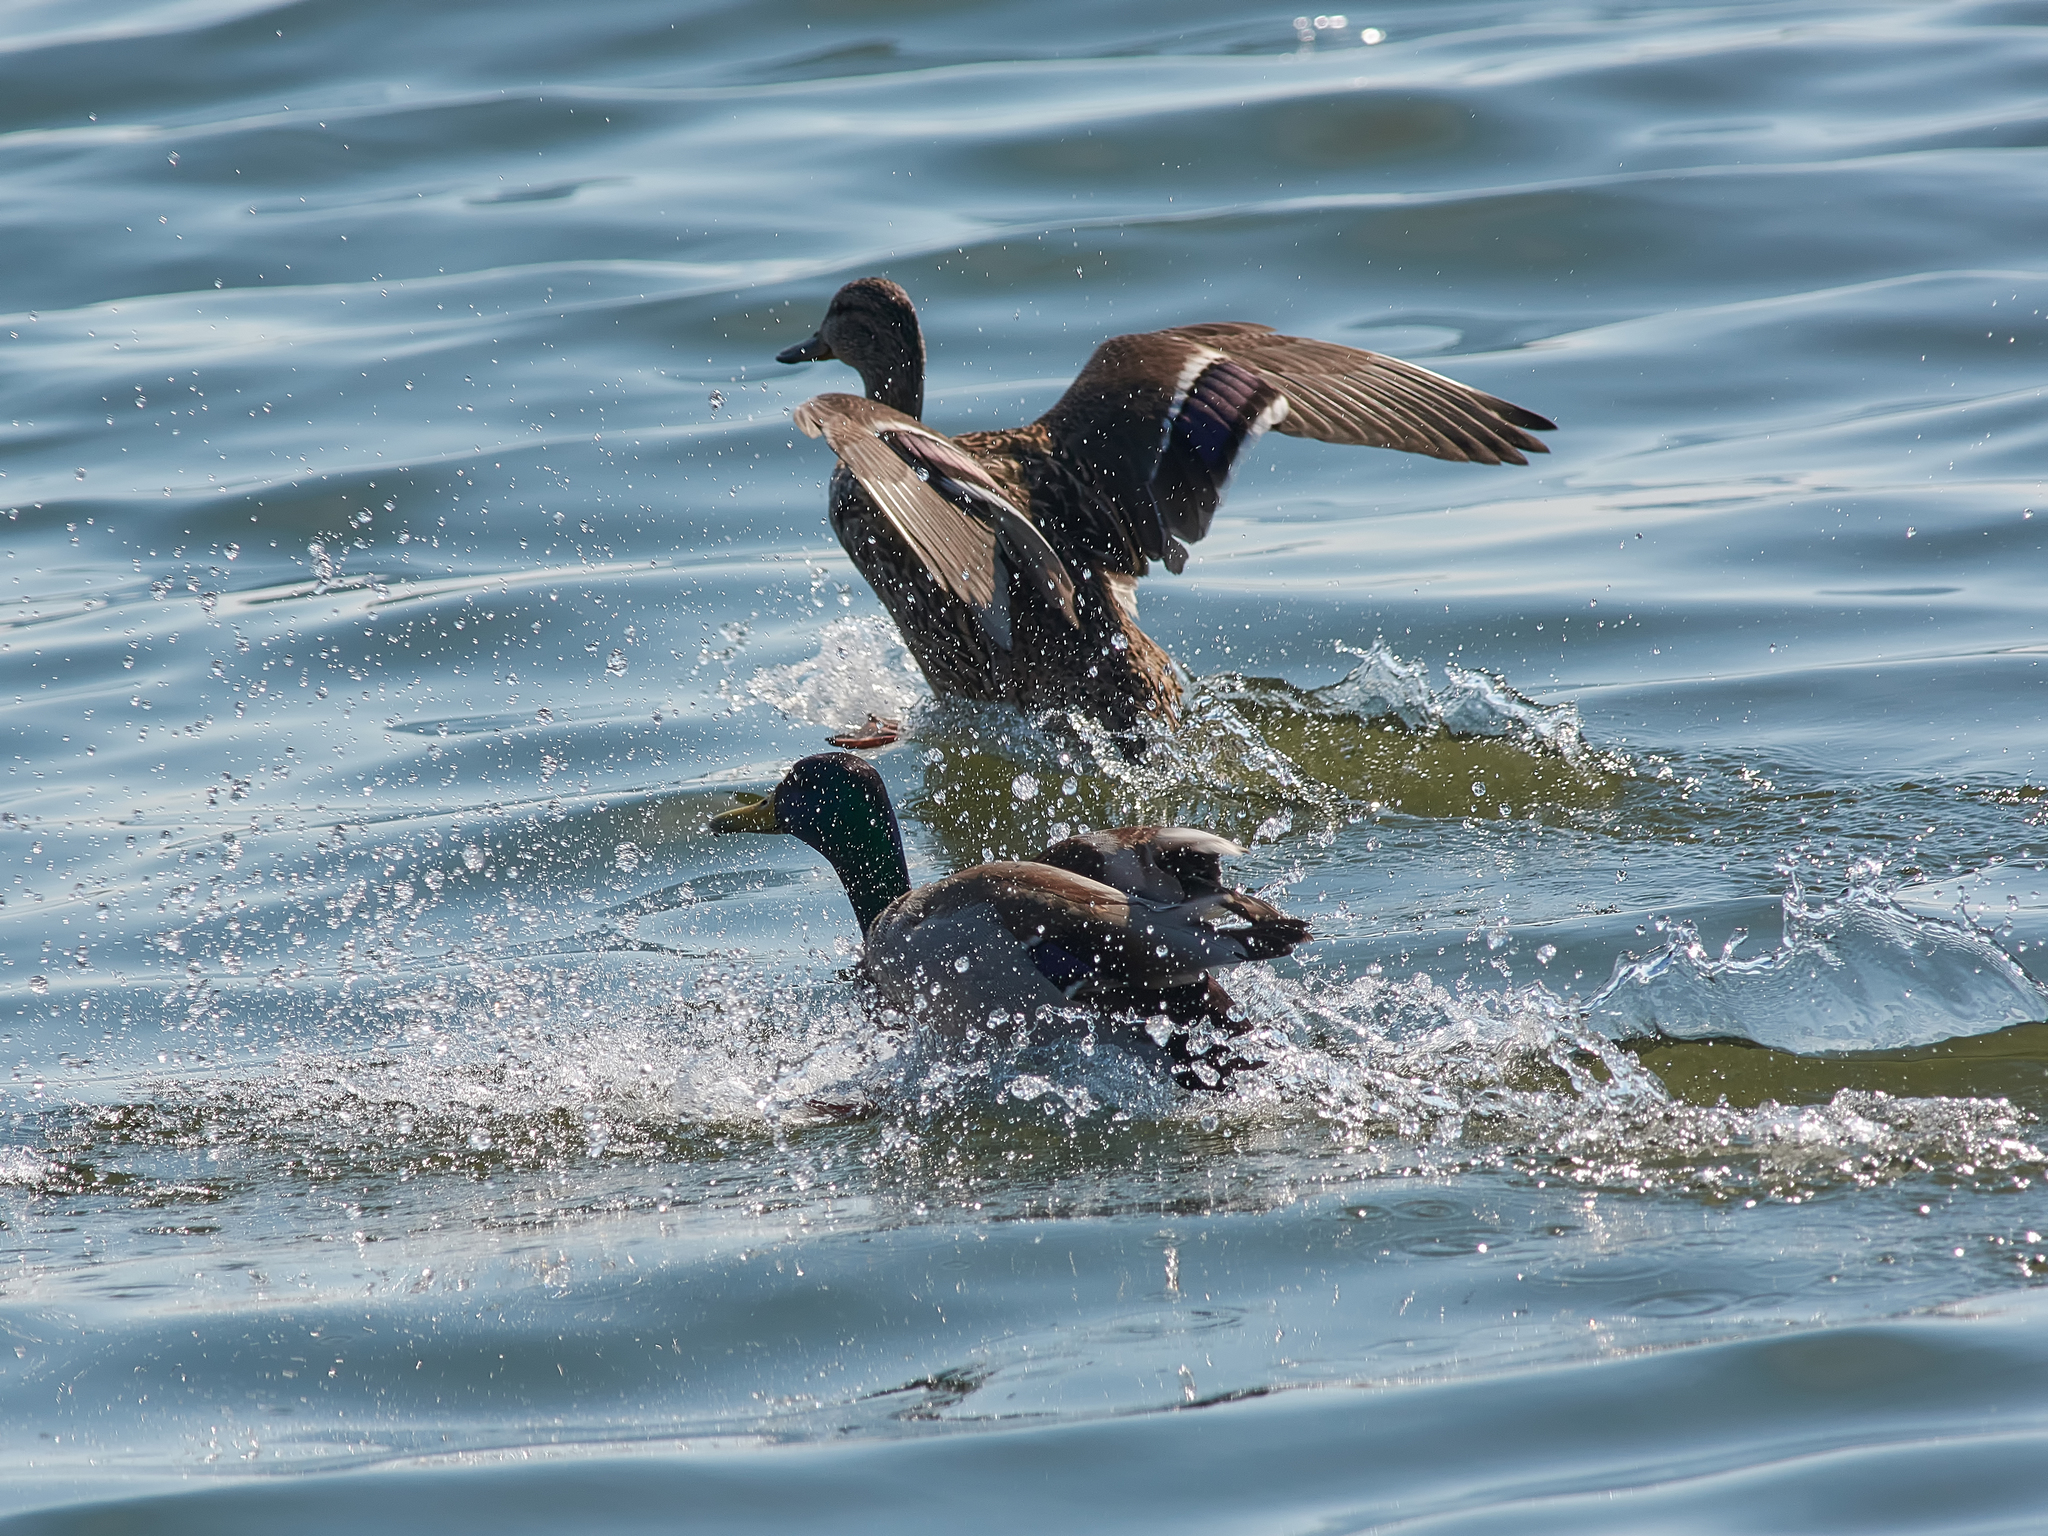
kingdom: Animalia
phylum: Chordata
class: Aves
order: Anseriformes
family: Anatidae
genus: Anas
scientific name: Anas platyrhynchos
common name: Mallard
